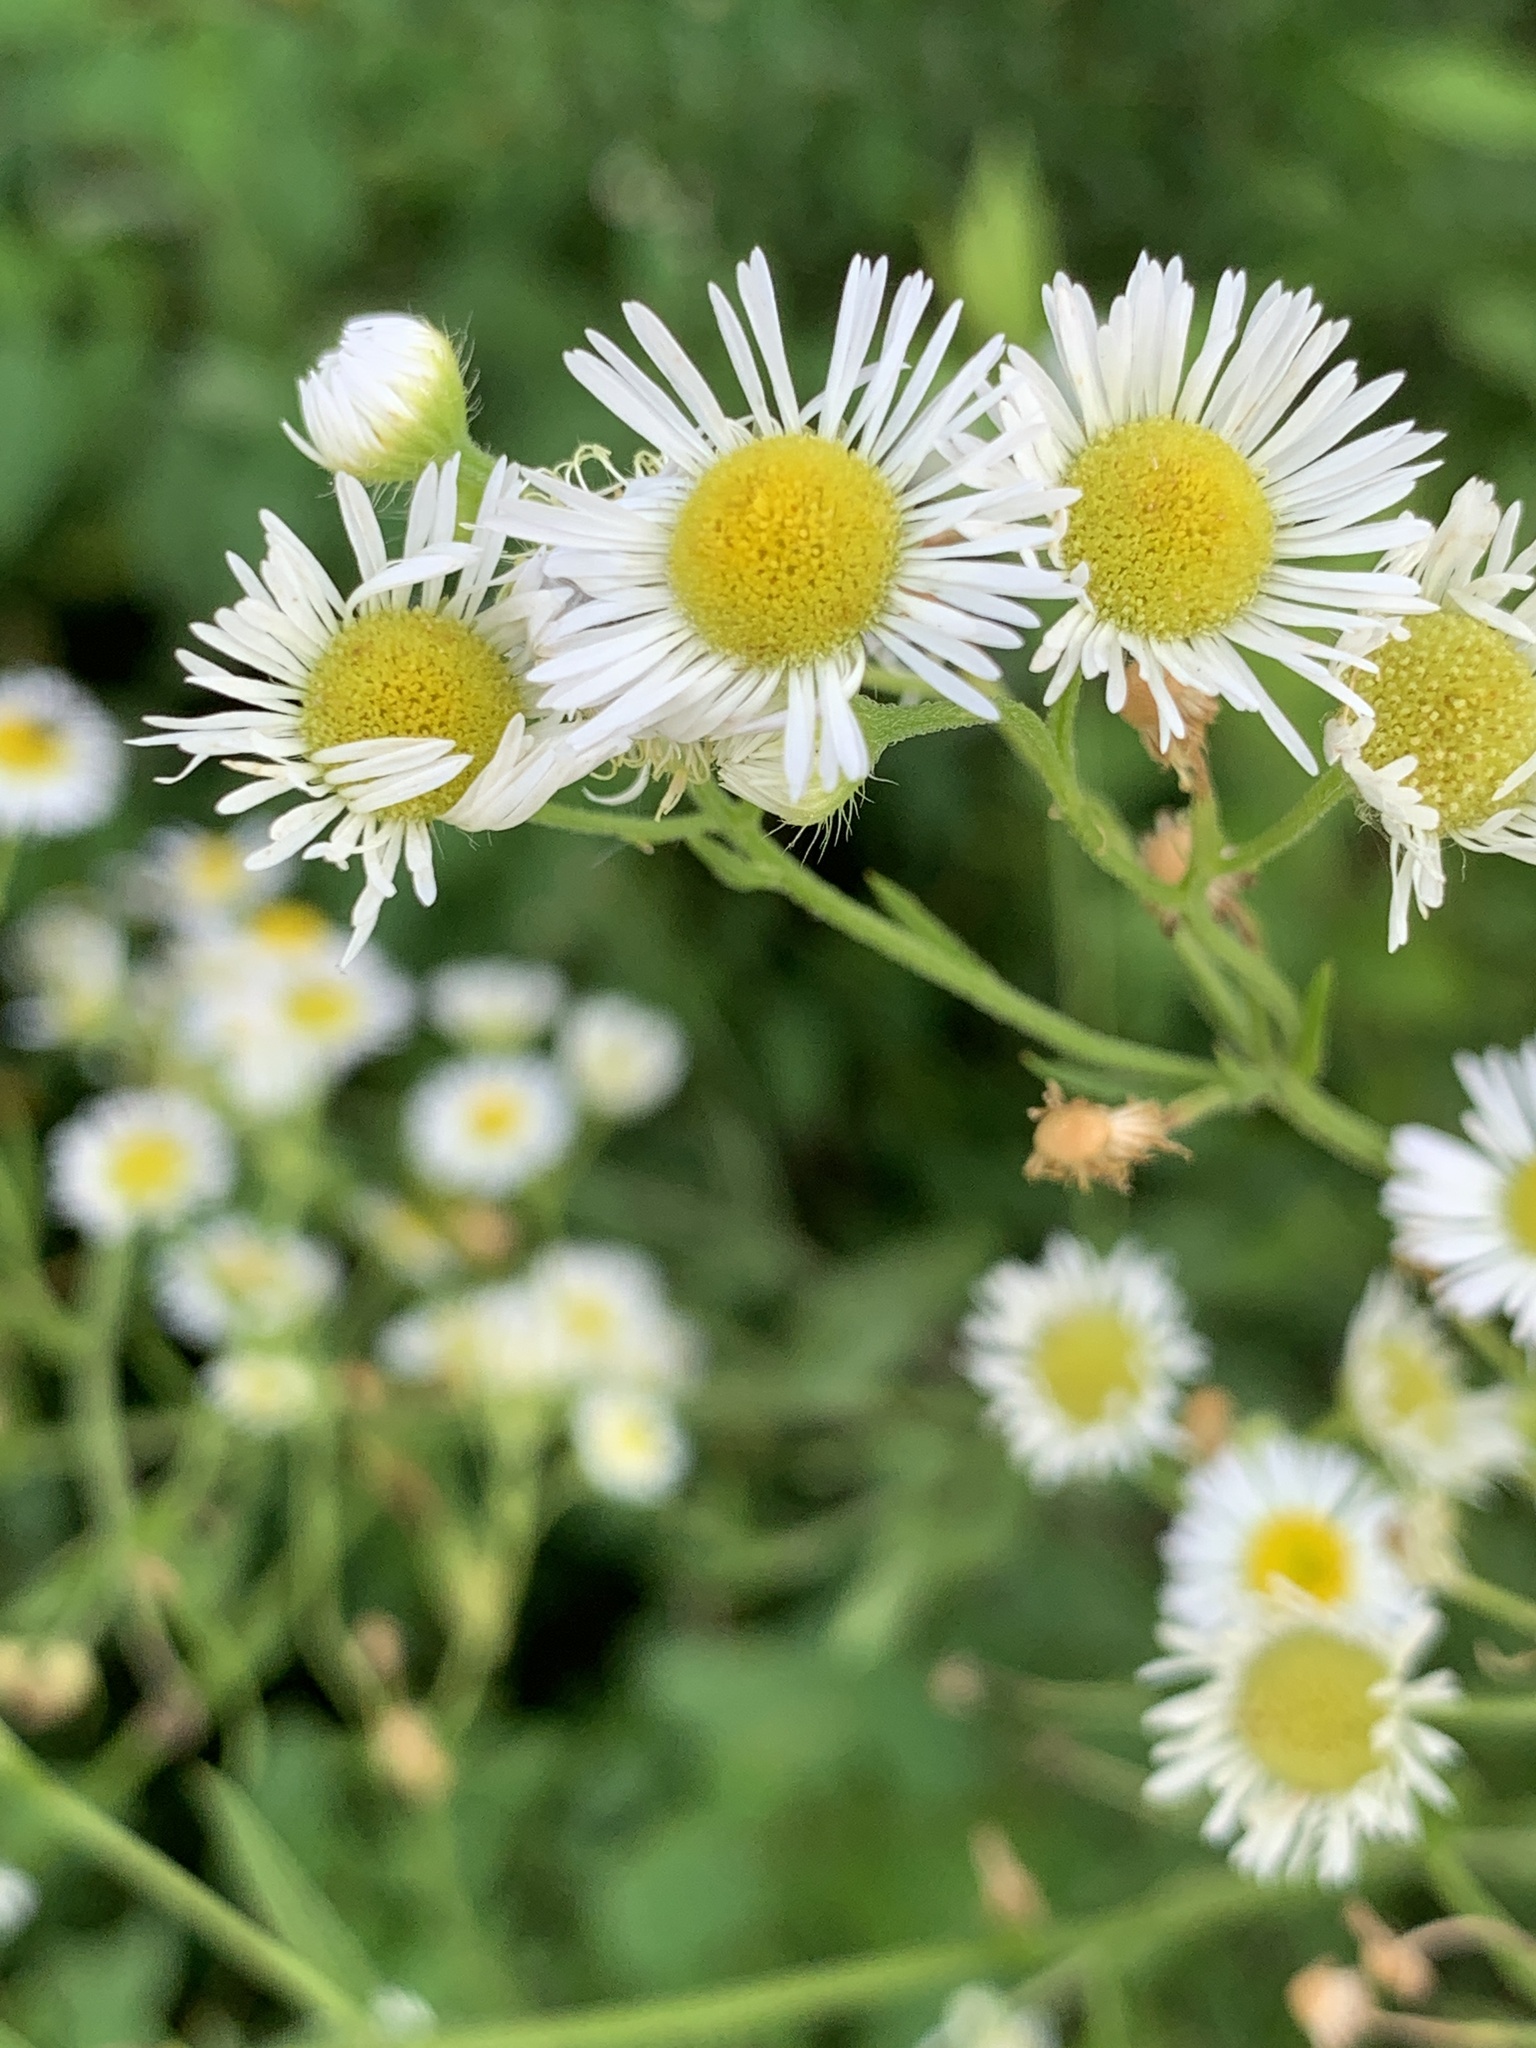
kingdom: Plantae
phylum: Tracheophyta
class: Magnoliopsida
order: Asterales
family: Asteraceae
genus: Erigeron
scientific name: Erigeron annuus
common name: Tall fleabane
